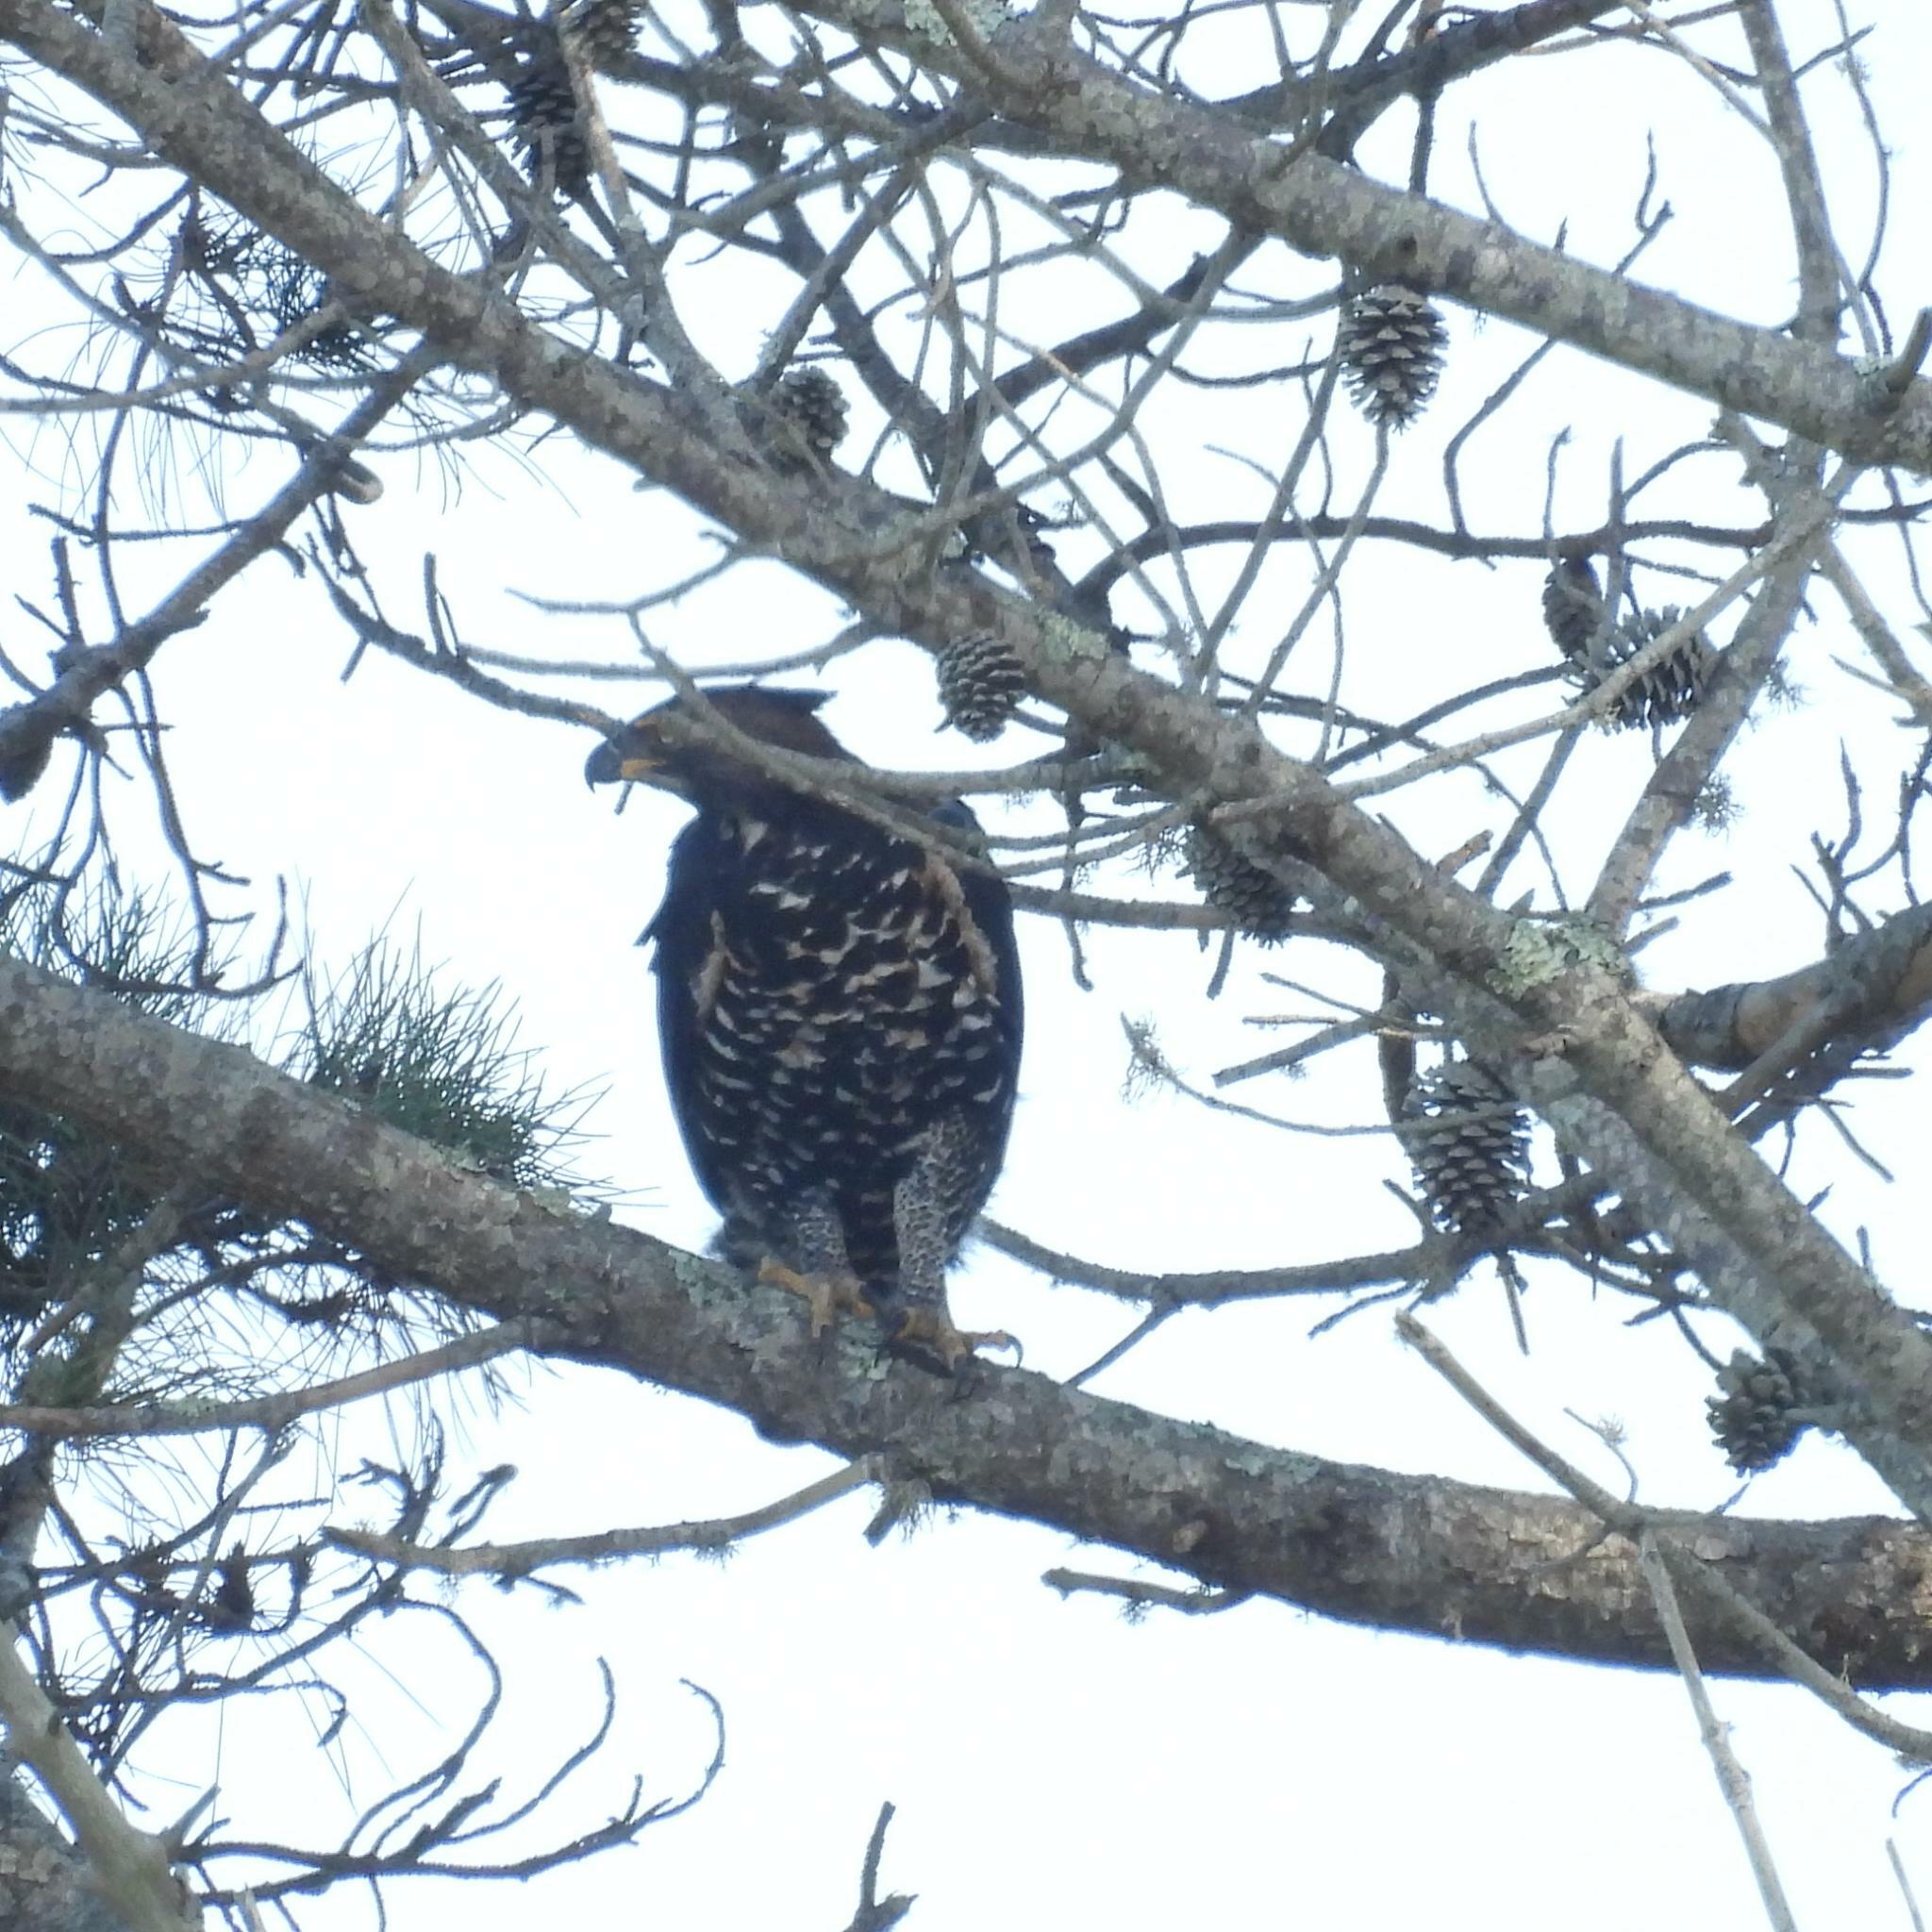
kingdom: Animalia
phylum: Chordata
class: Aves
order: Accipitriformes
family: Accipitridae
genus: Stephanoaetus
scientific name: Stephanoaetus coronatus
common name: Crowned eagle
